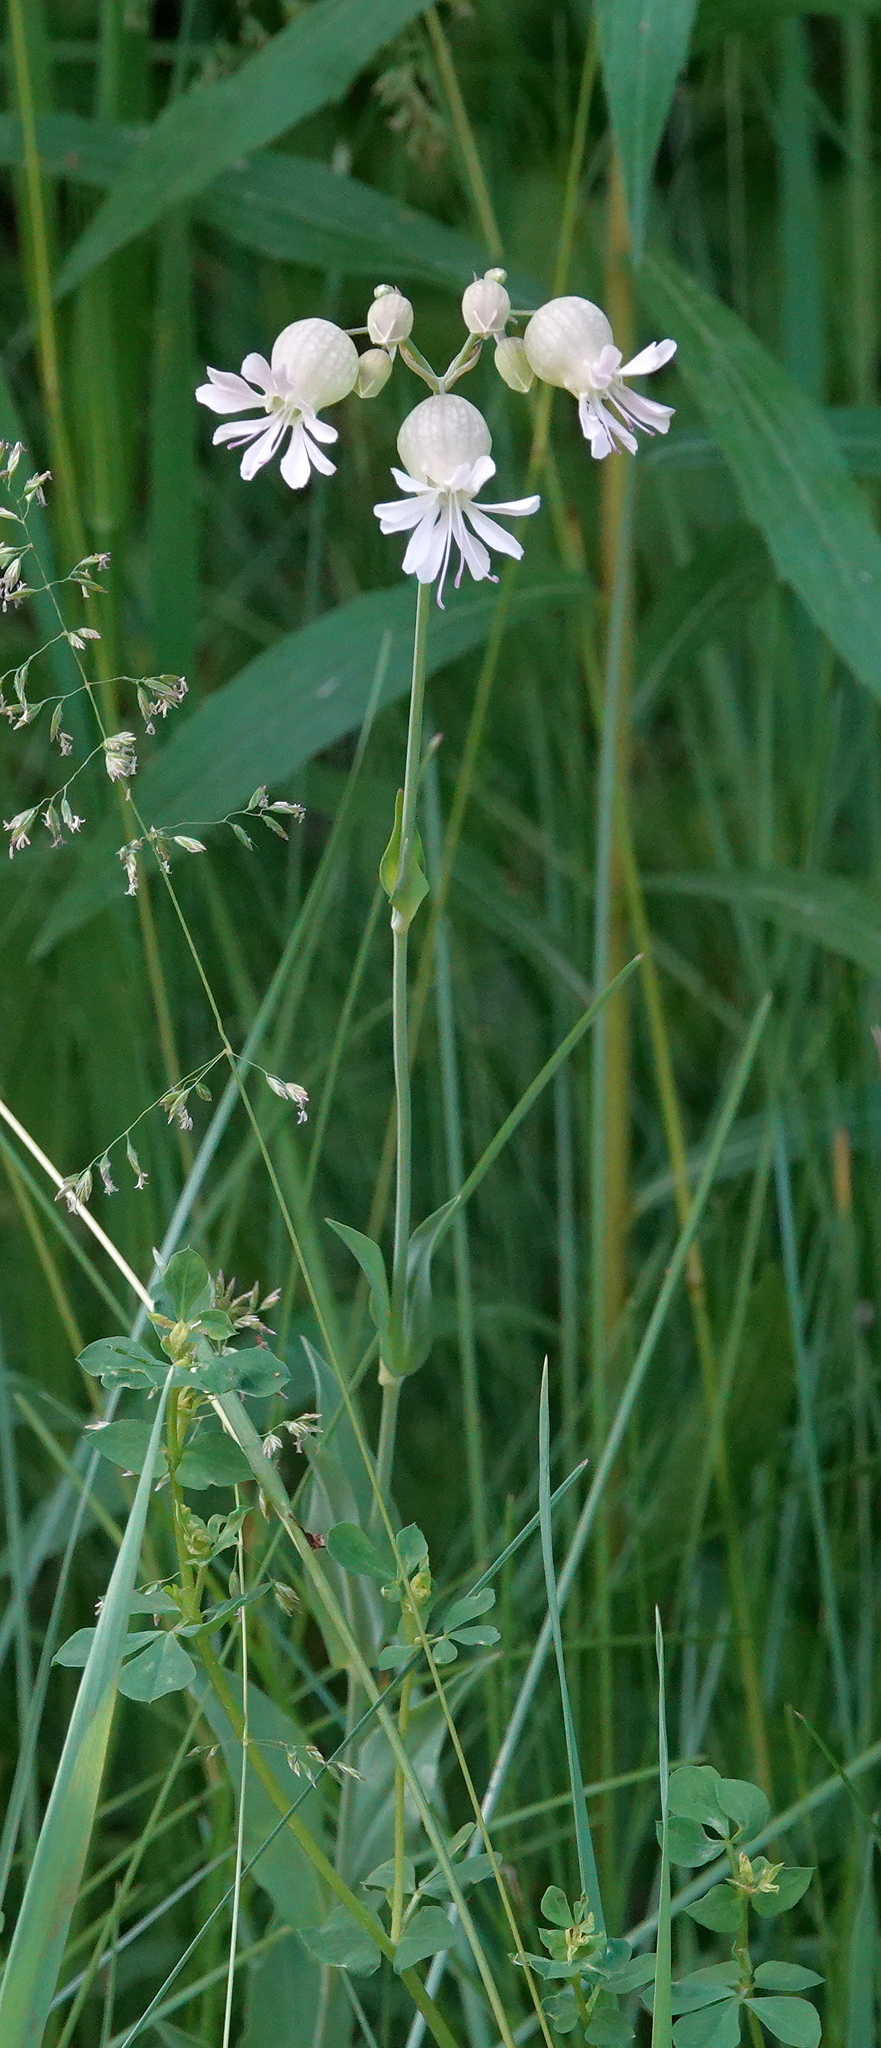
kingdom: Plantae
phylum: Tracheophyta
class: Magnoliopsida
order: Caryophyllales
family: Caryophyllaceae
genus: Silene
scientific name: Silene vulgaris
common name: Bladder campion
